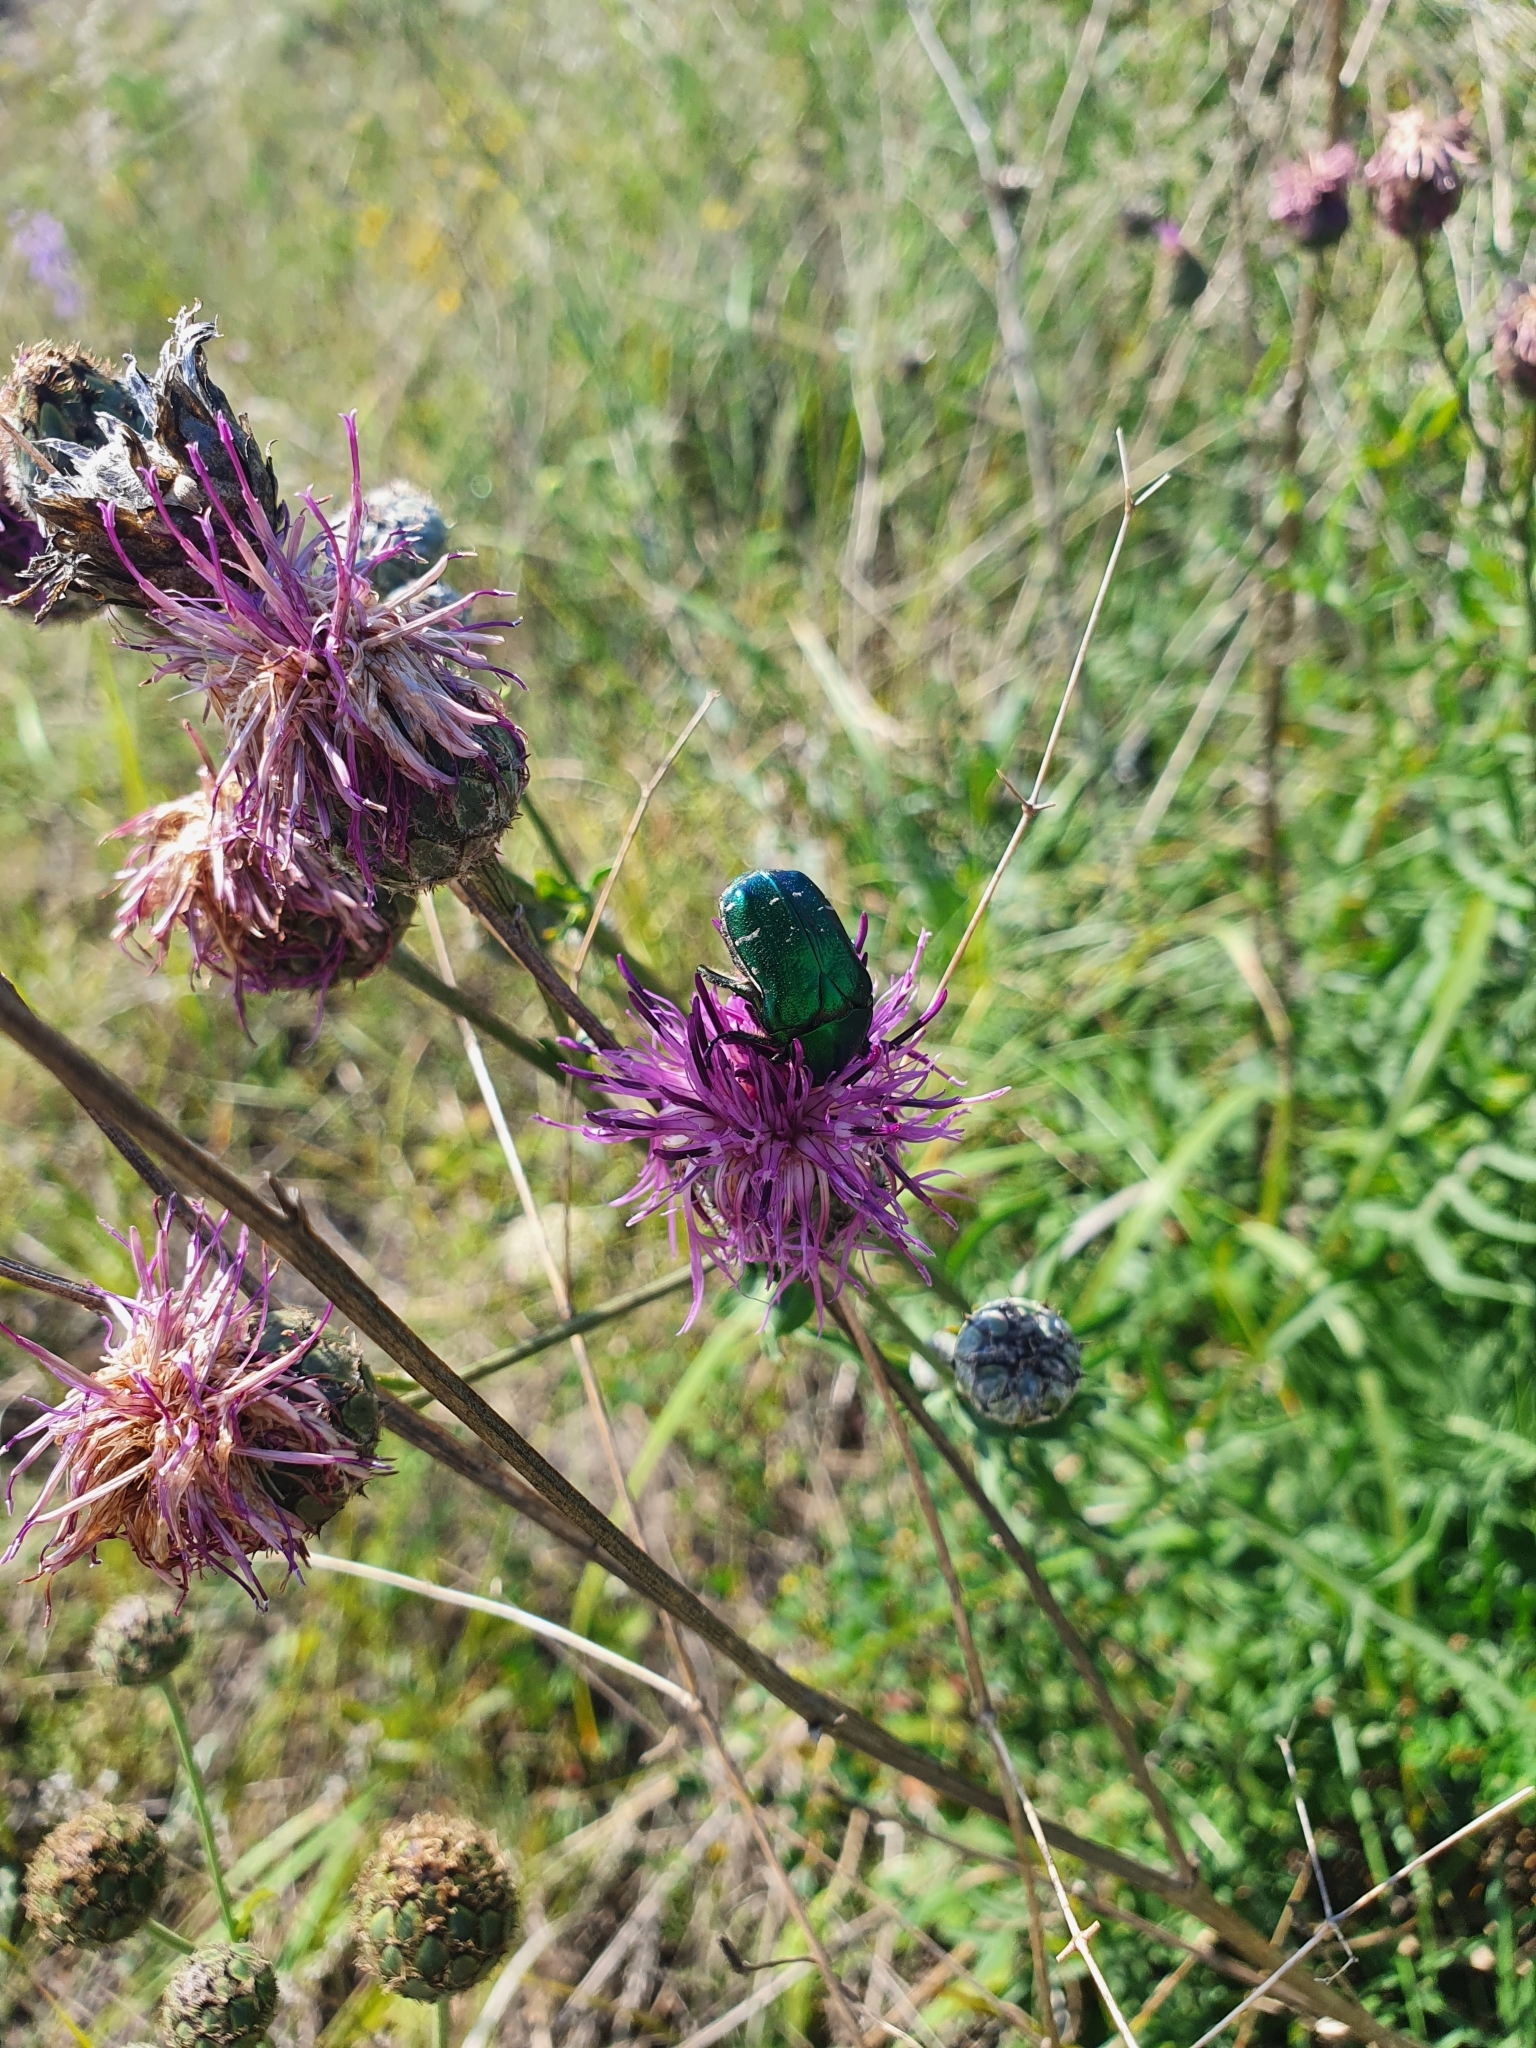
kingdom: Plantae
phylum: Tracheophyta
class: Magnoliopsida
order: Asterales
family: Asteraceae
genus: Centaurea
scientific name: Centaurea scabiosa
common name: Greater knapweed
